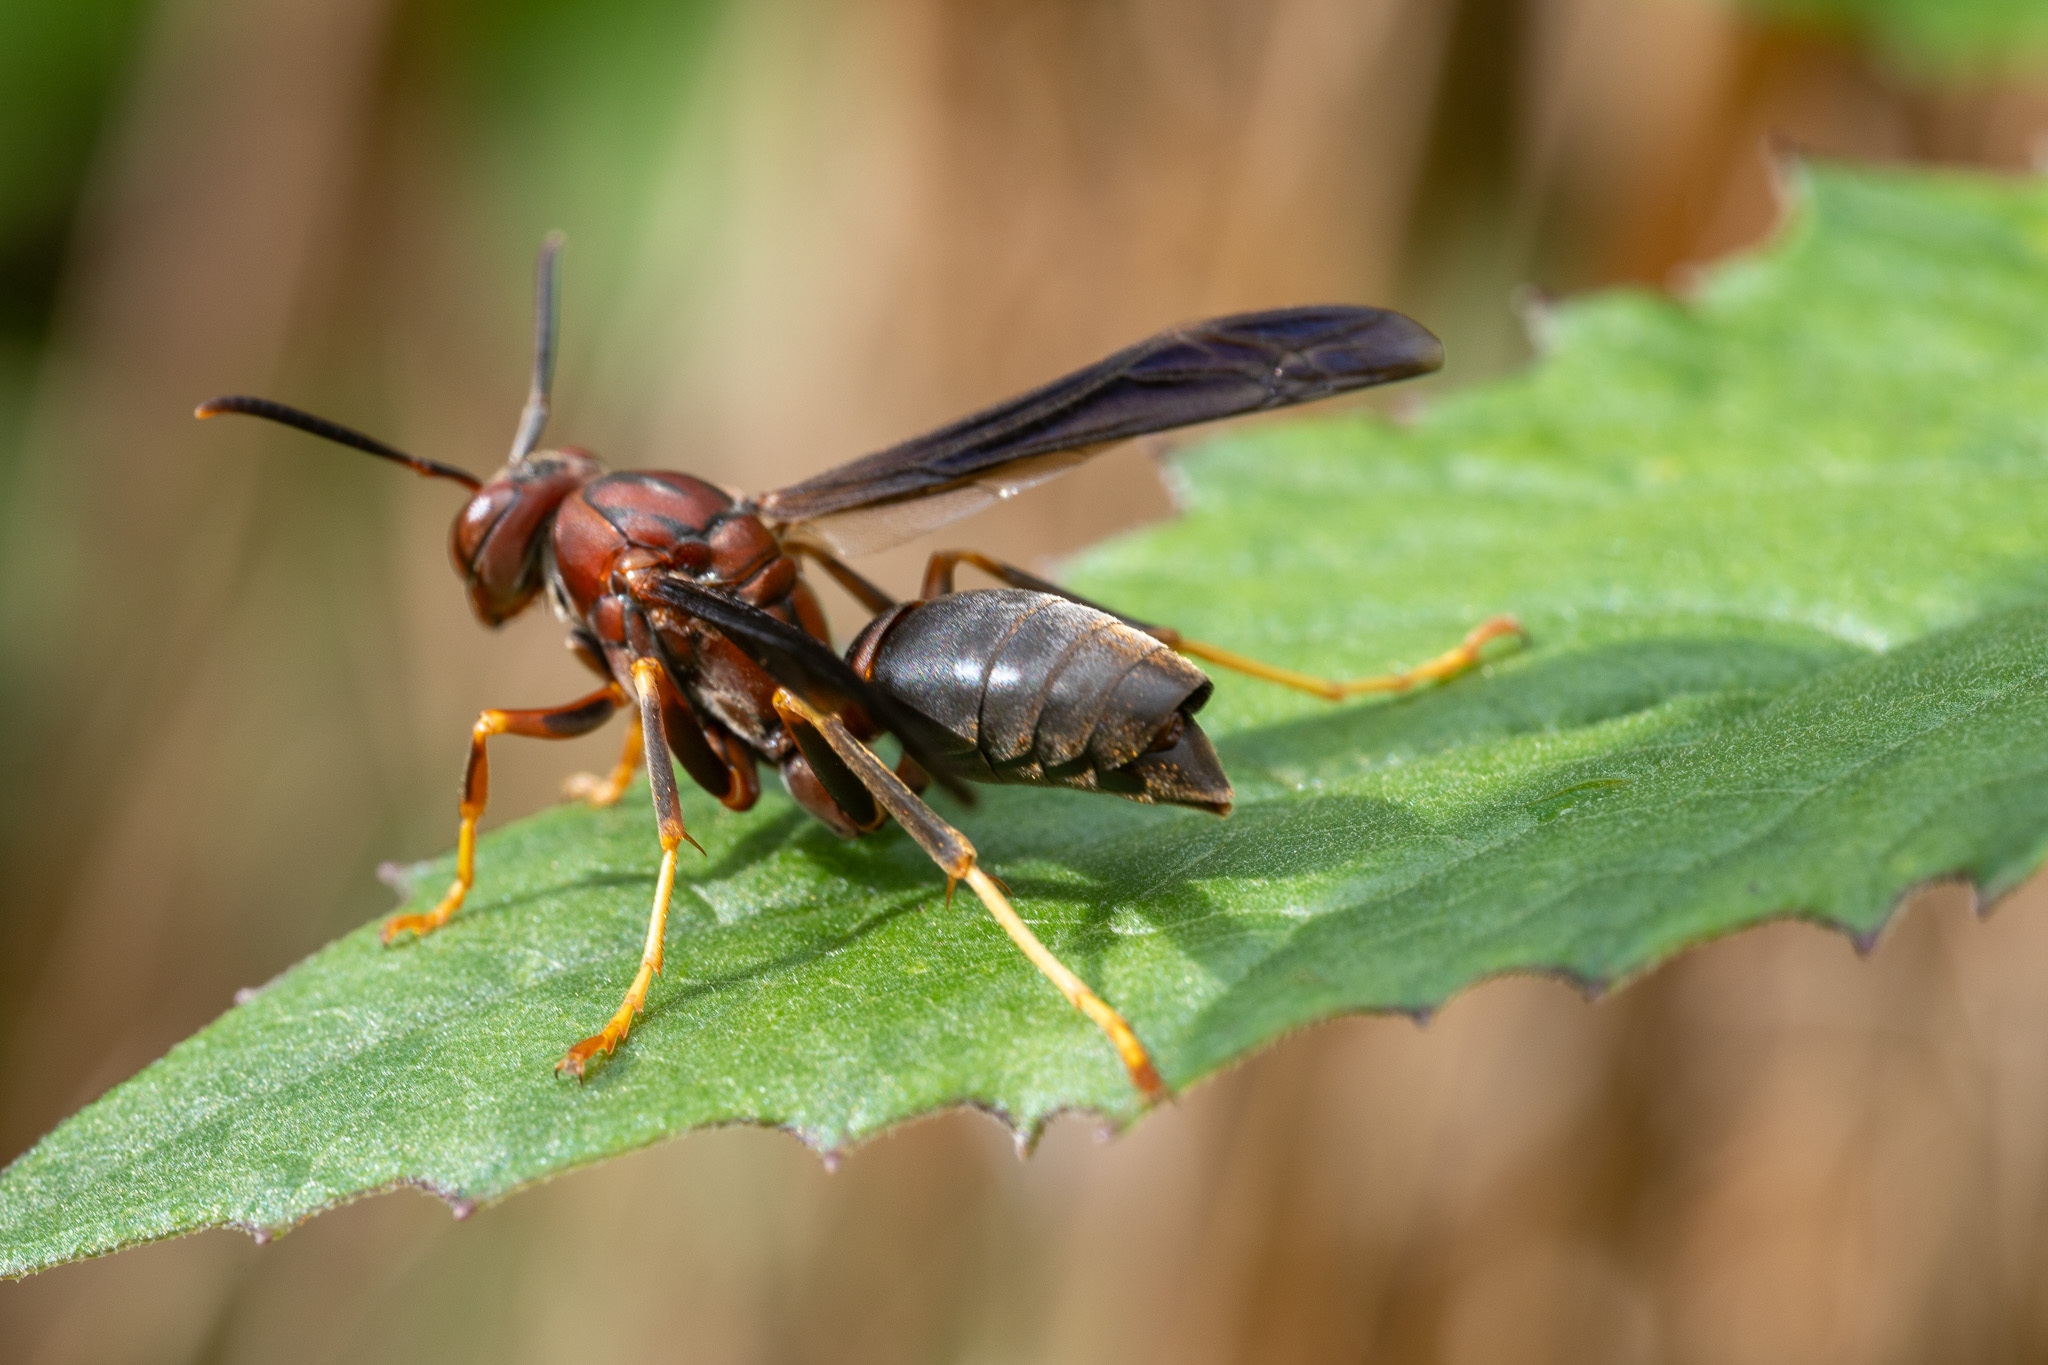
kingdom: Animalia
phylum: Arthropoda
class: Insecta
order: Strepsiptera
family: Xenidae
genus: Xenos
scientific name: Xenos pecki
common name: Twisted wing parasite
